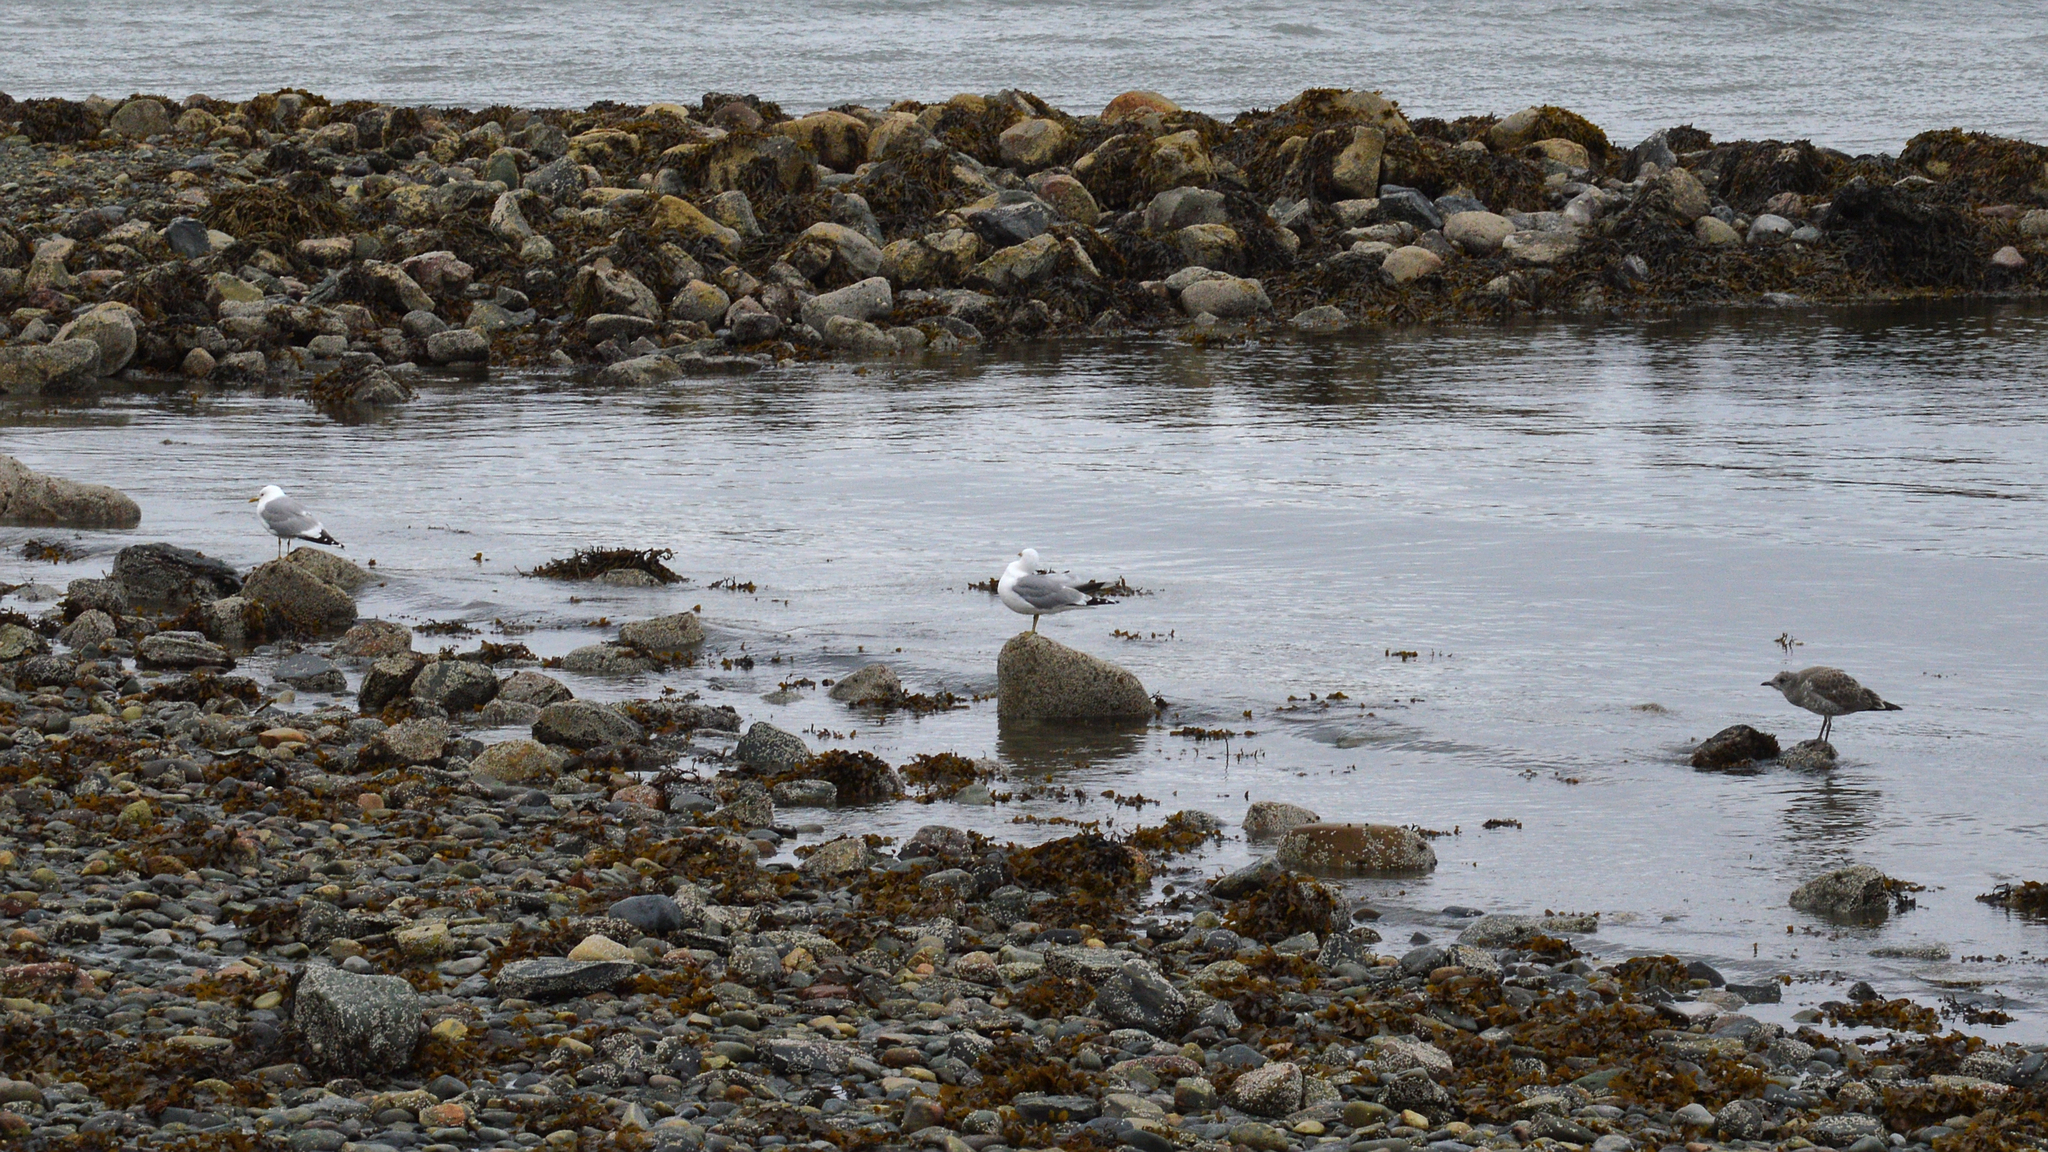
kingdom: Animalia
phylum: Chordata
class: Aves
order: Charadriiformes
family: Laridae
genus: Larus
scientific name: Larus canus
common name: Mew gull
